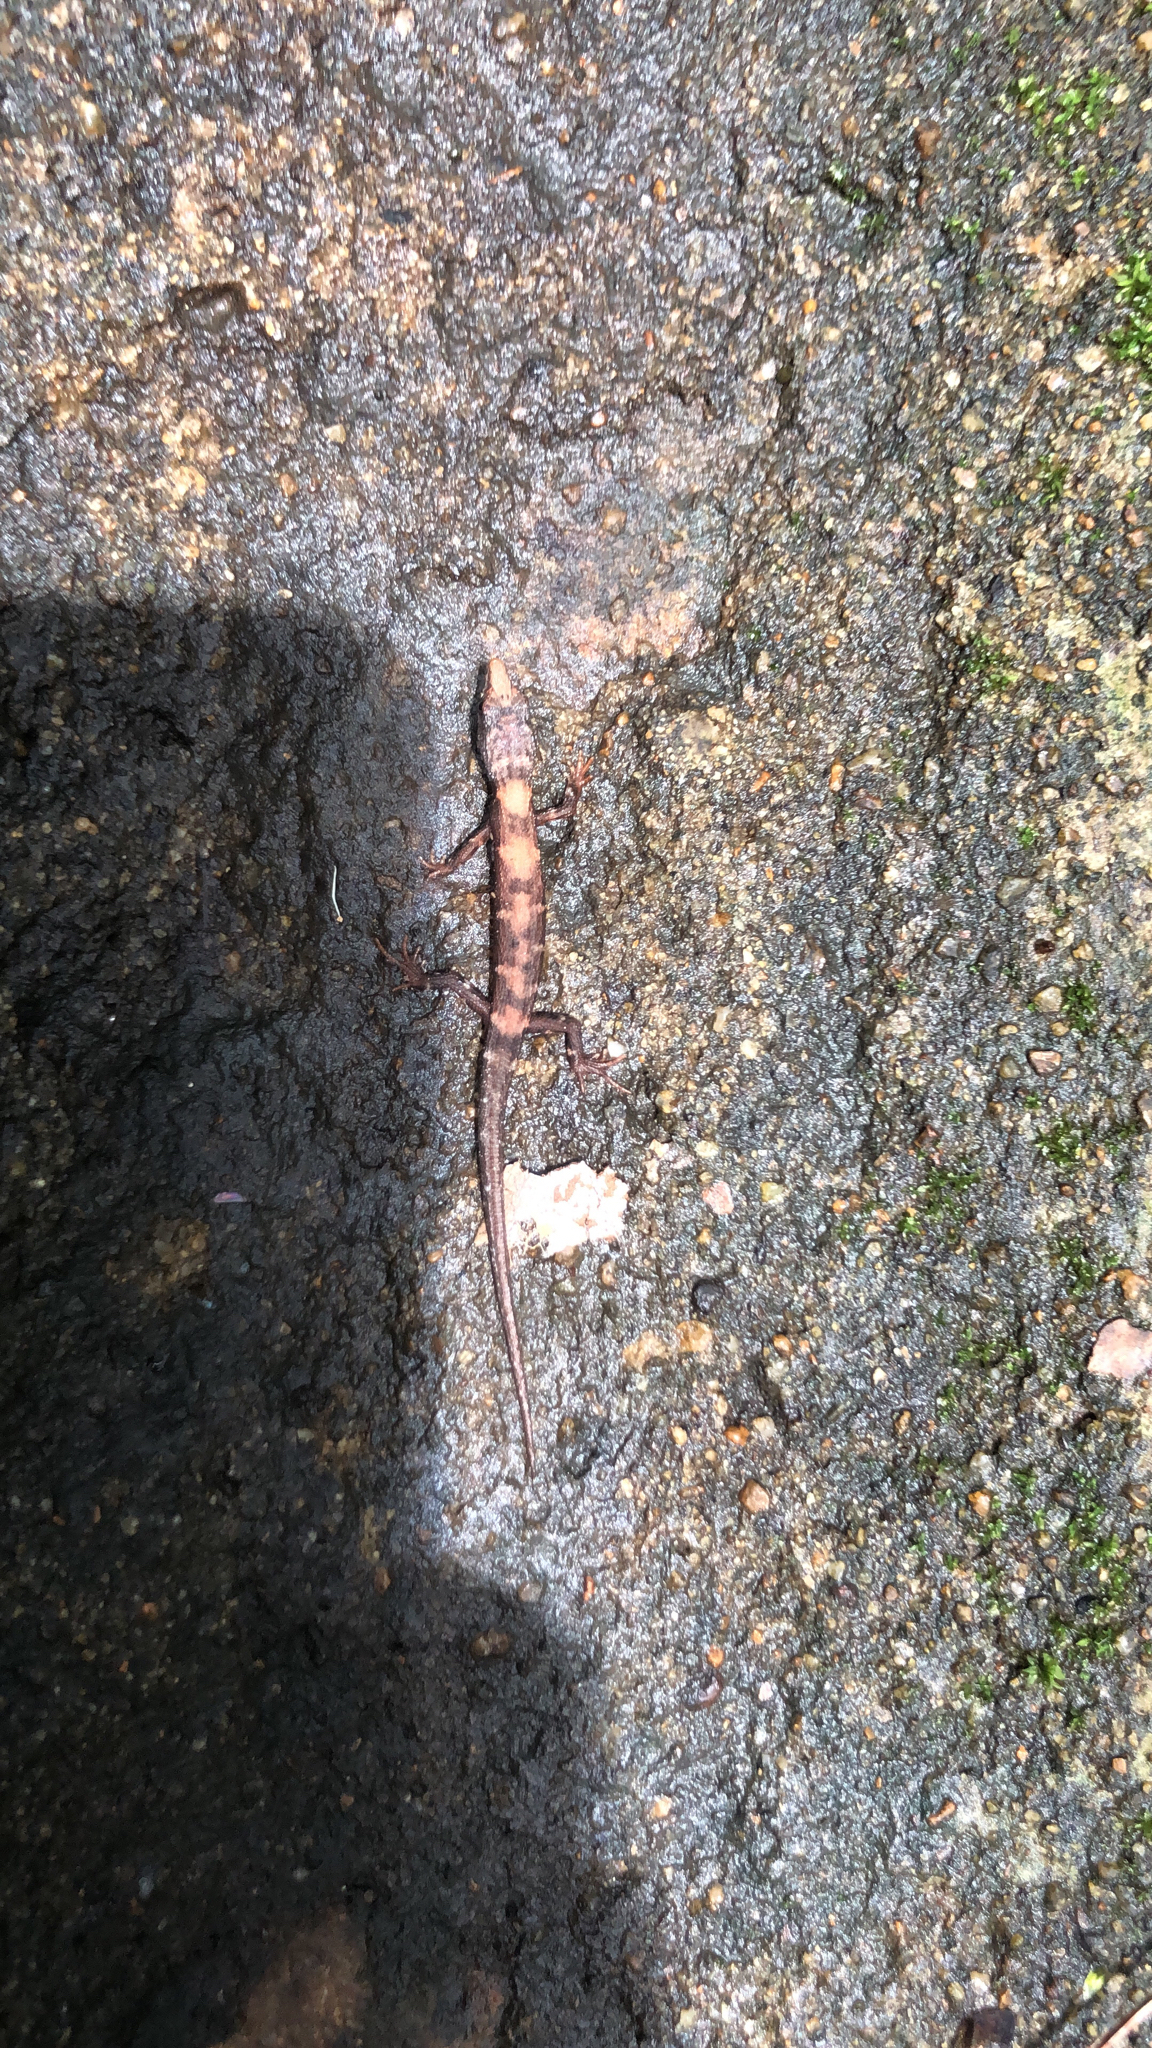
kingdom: Animalia
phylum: Chordata
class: Squamata
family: Scincidae
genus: Tropidophorus
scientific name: Tropidophorus sinicus
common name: Chinese water skink
